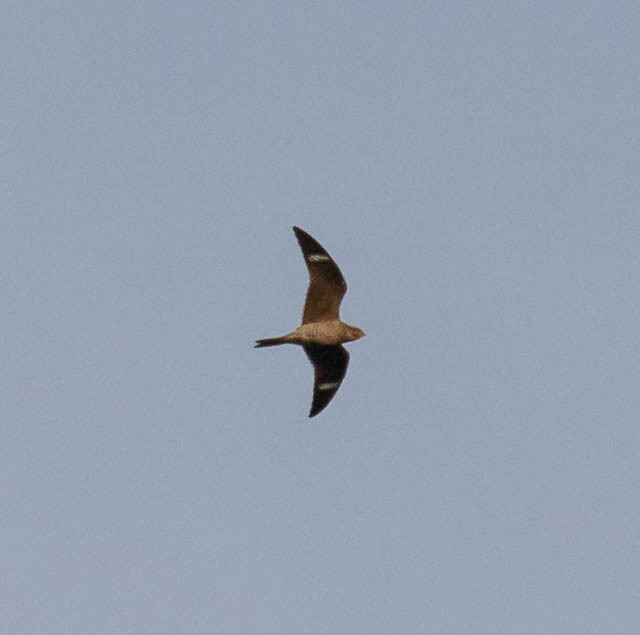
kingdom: Animalia
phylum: Chordata
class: Aves
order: Caprimulgiformes
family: Caprimulgidae
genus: Chordeiles
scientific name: Chordeiles minor
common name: Common nighthawk
